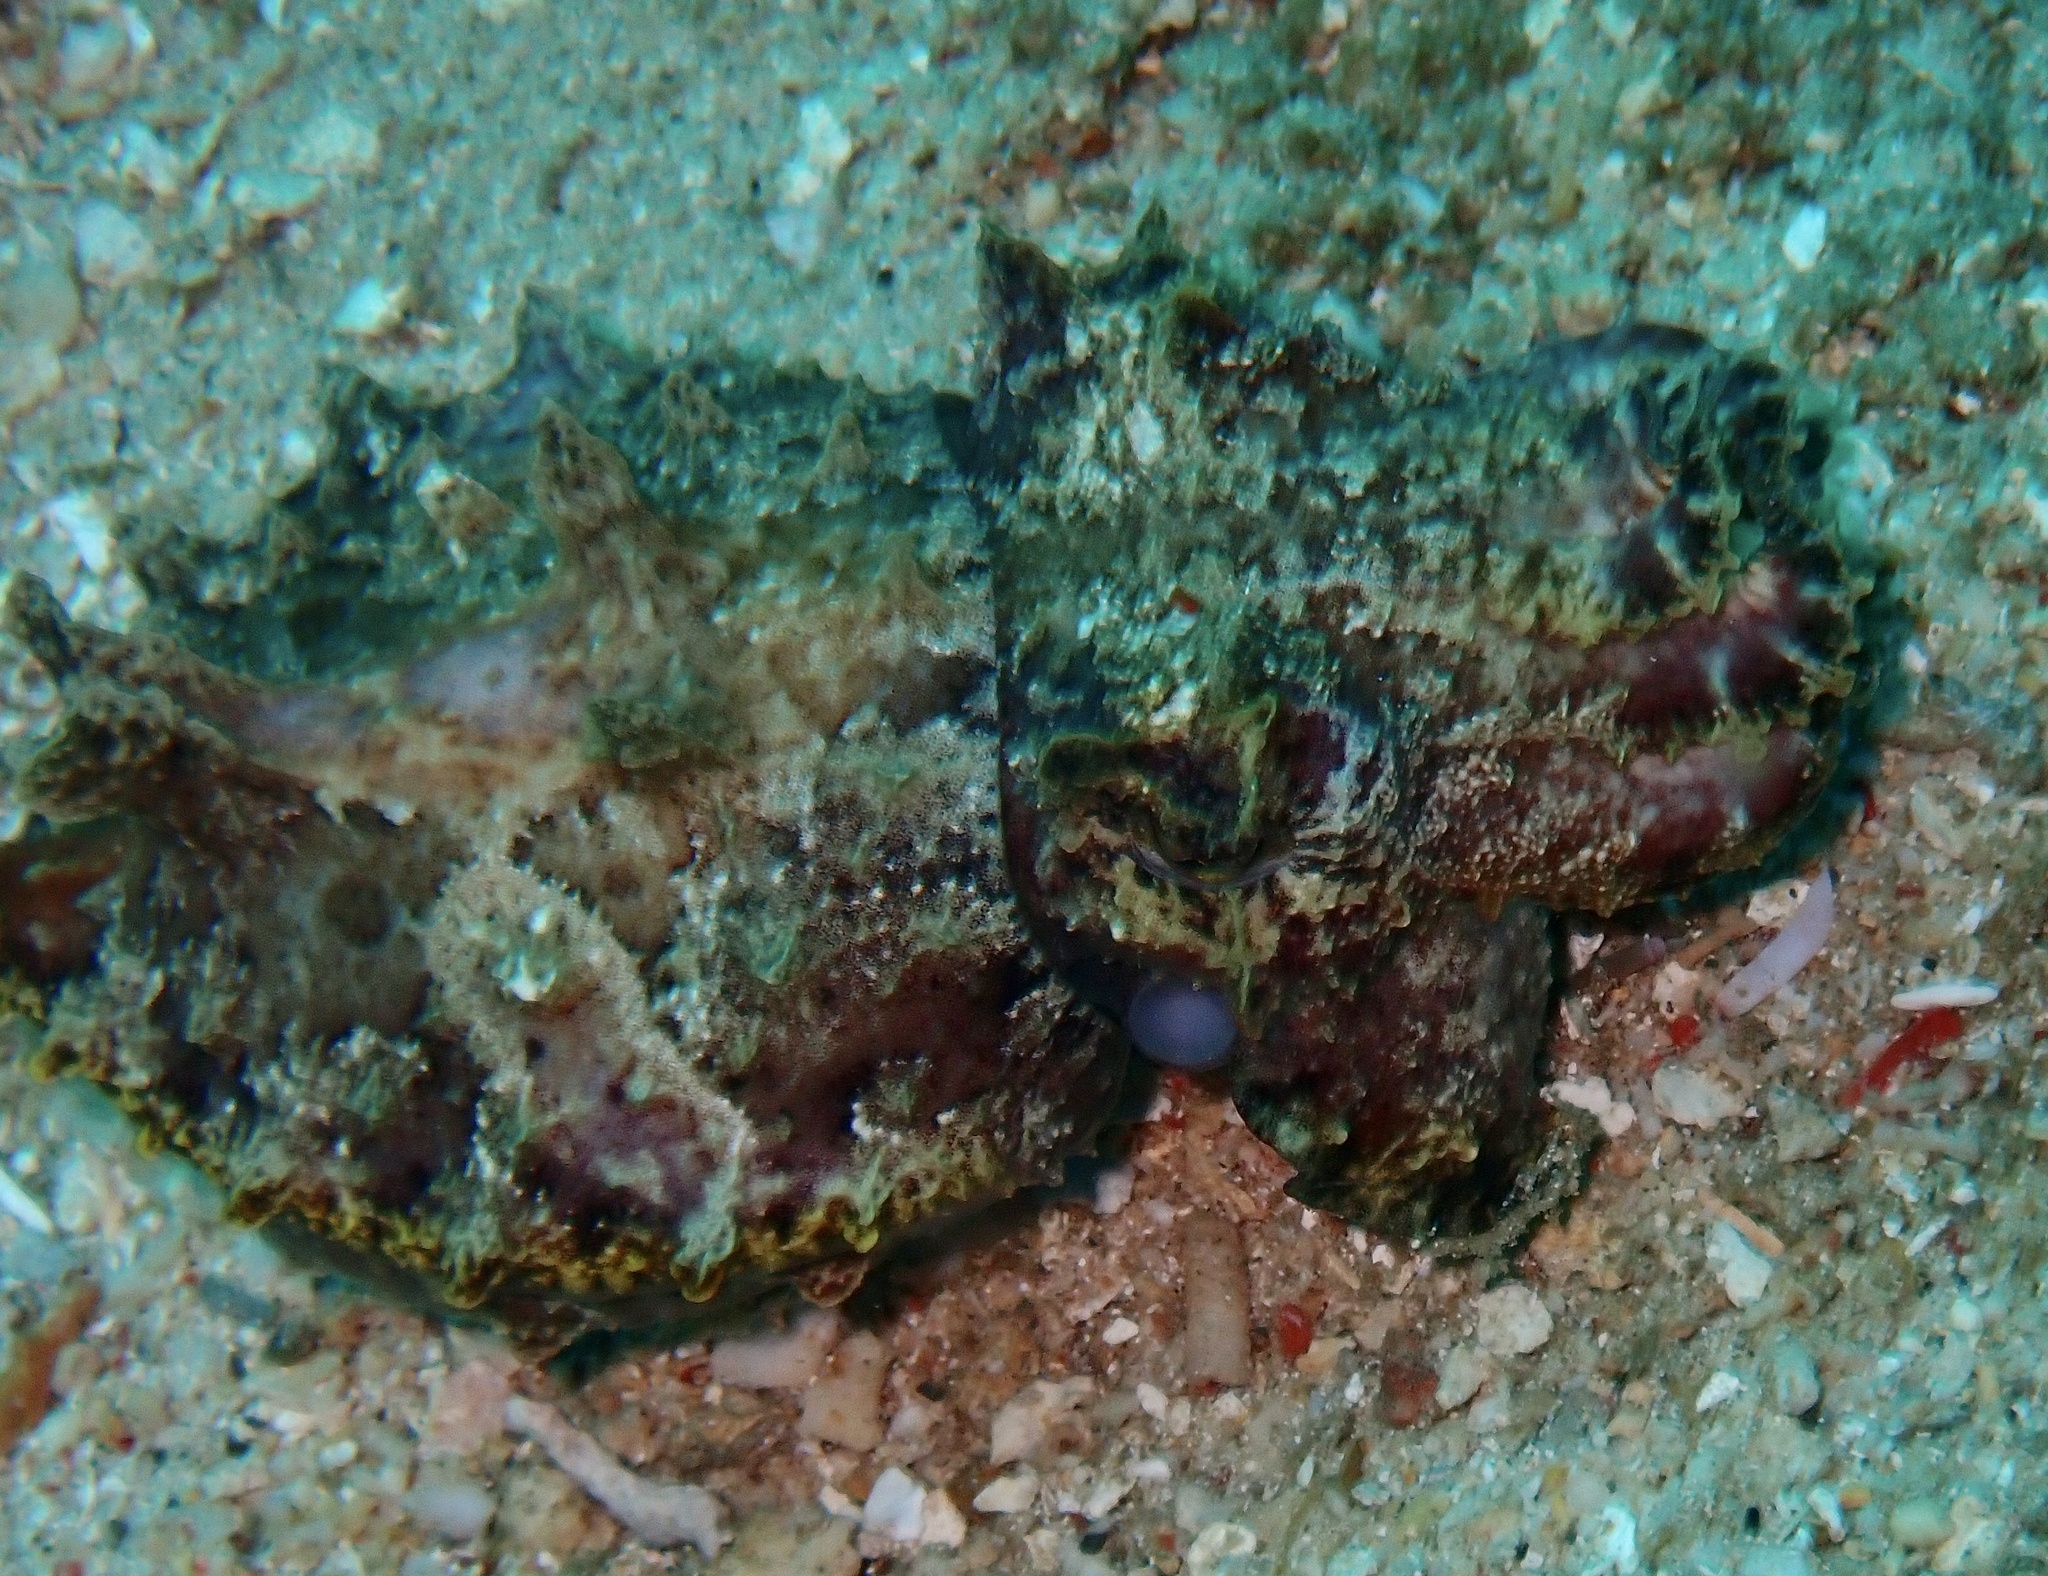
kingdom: Animalia
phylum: Mollusca
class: Cephalopoda
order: Sepiida
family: Sepiidae
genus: Ascarosepion
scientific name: Ascarosepion pfefferi
